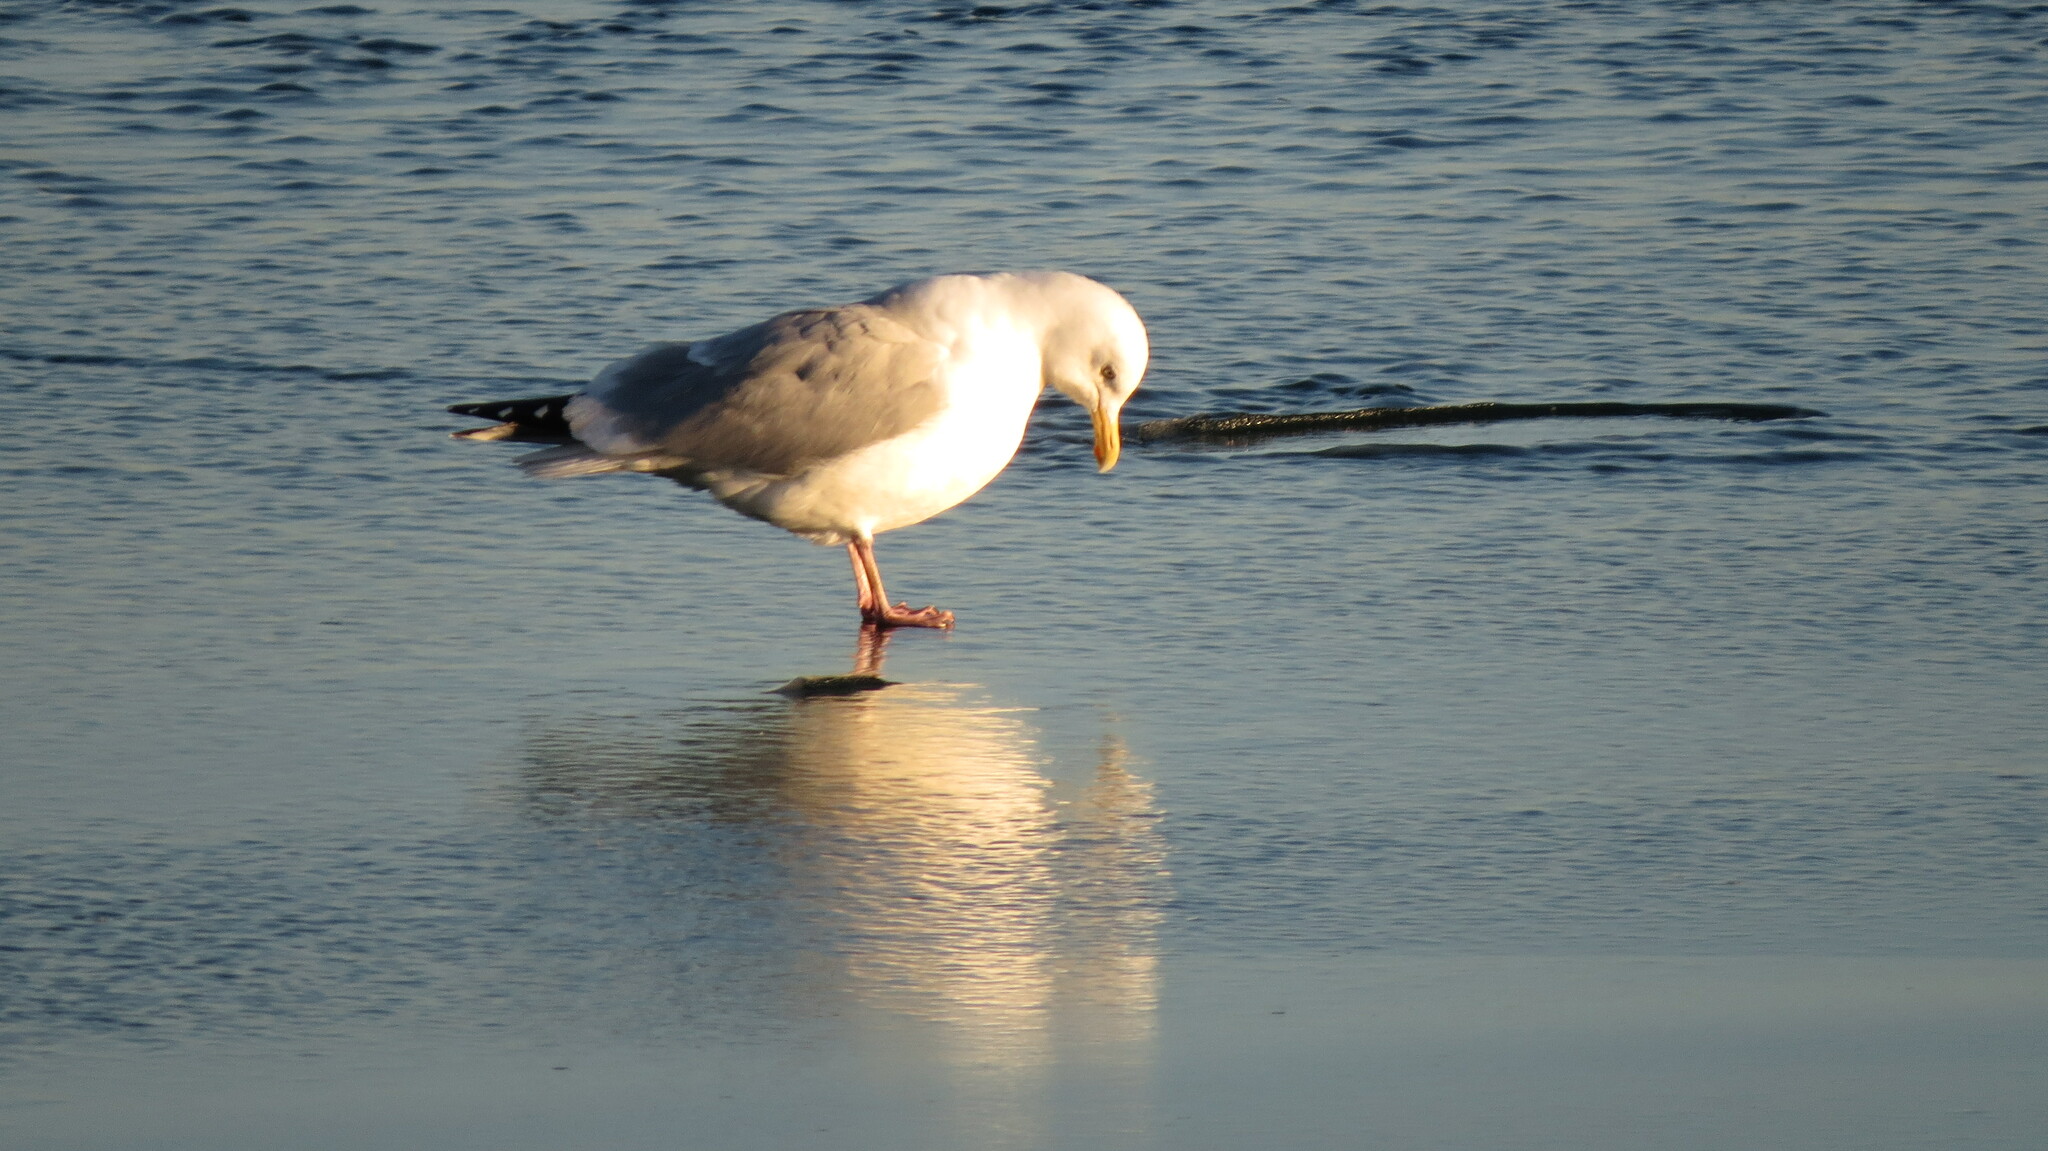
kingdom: Animalia
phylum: Chordata
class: Aves
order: Charadriiformes
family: Laridae
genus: Larus
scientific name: Larus smithsonianus
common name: American herring gull
